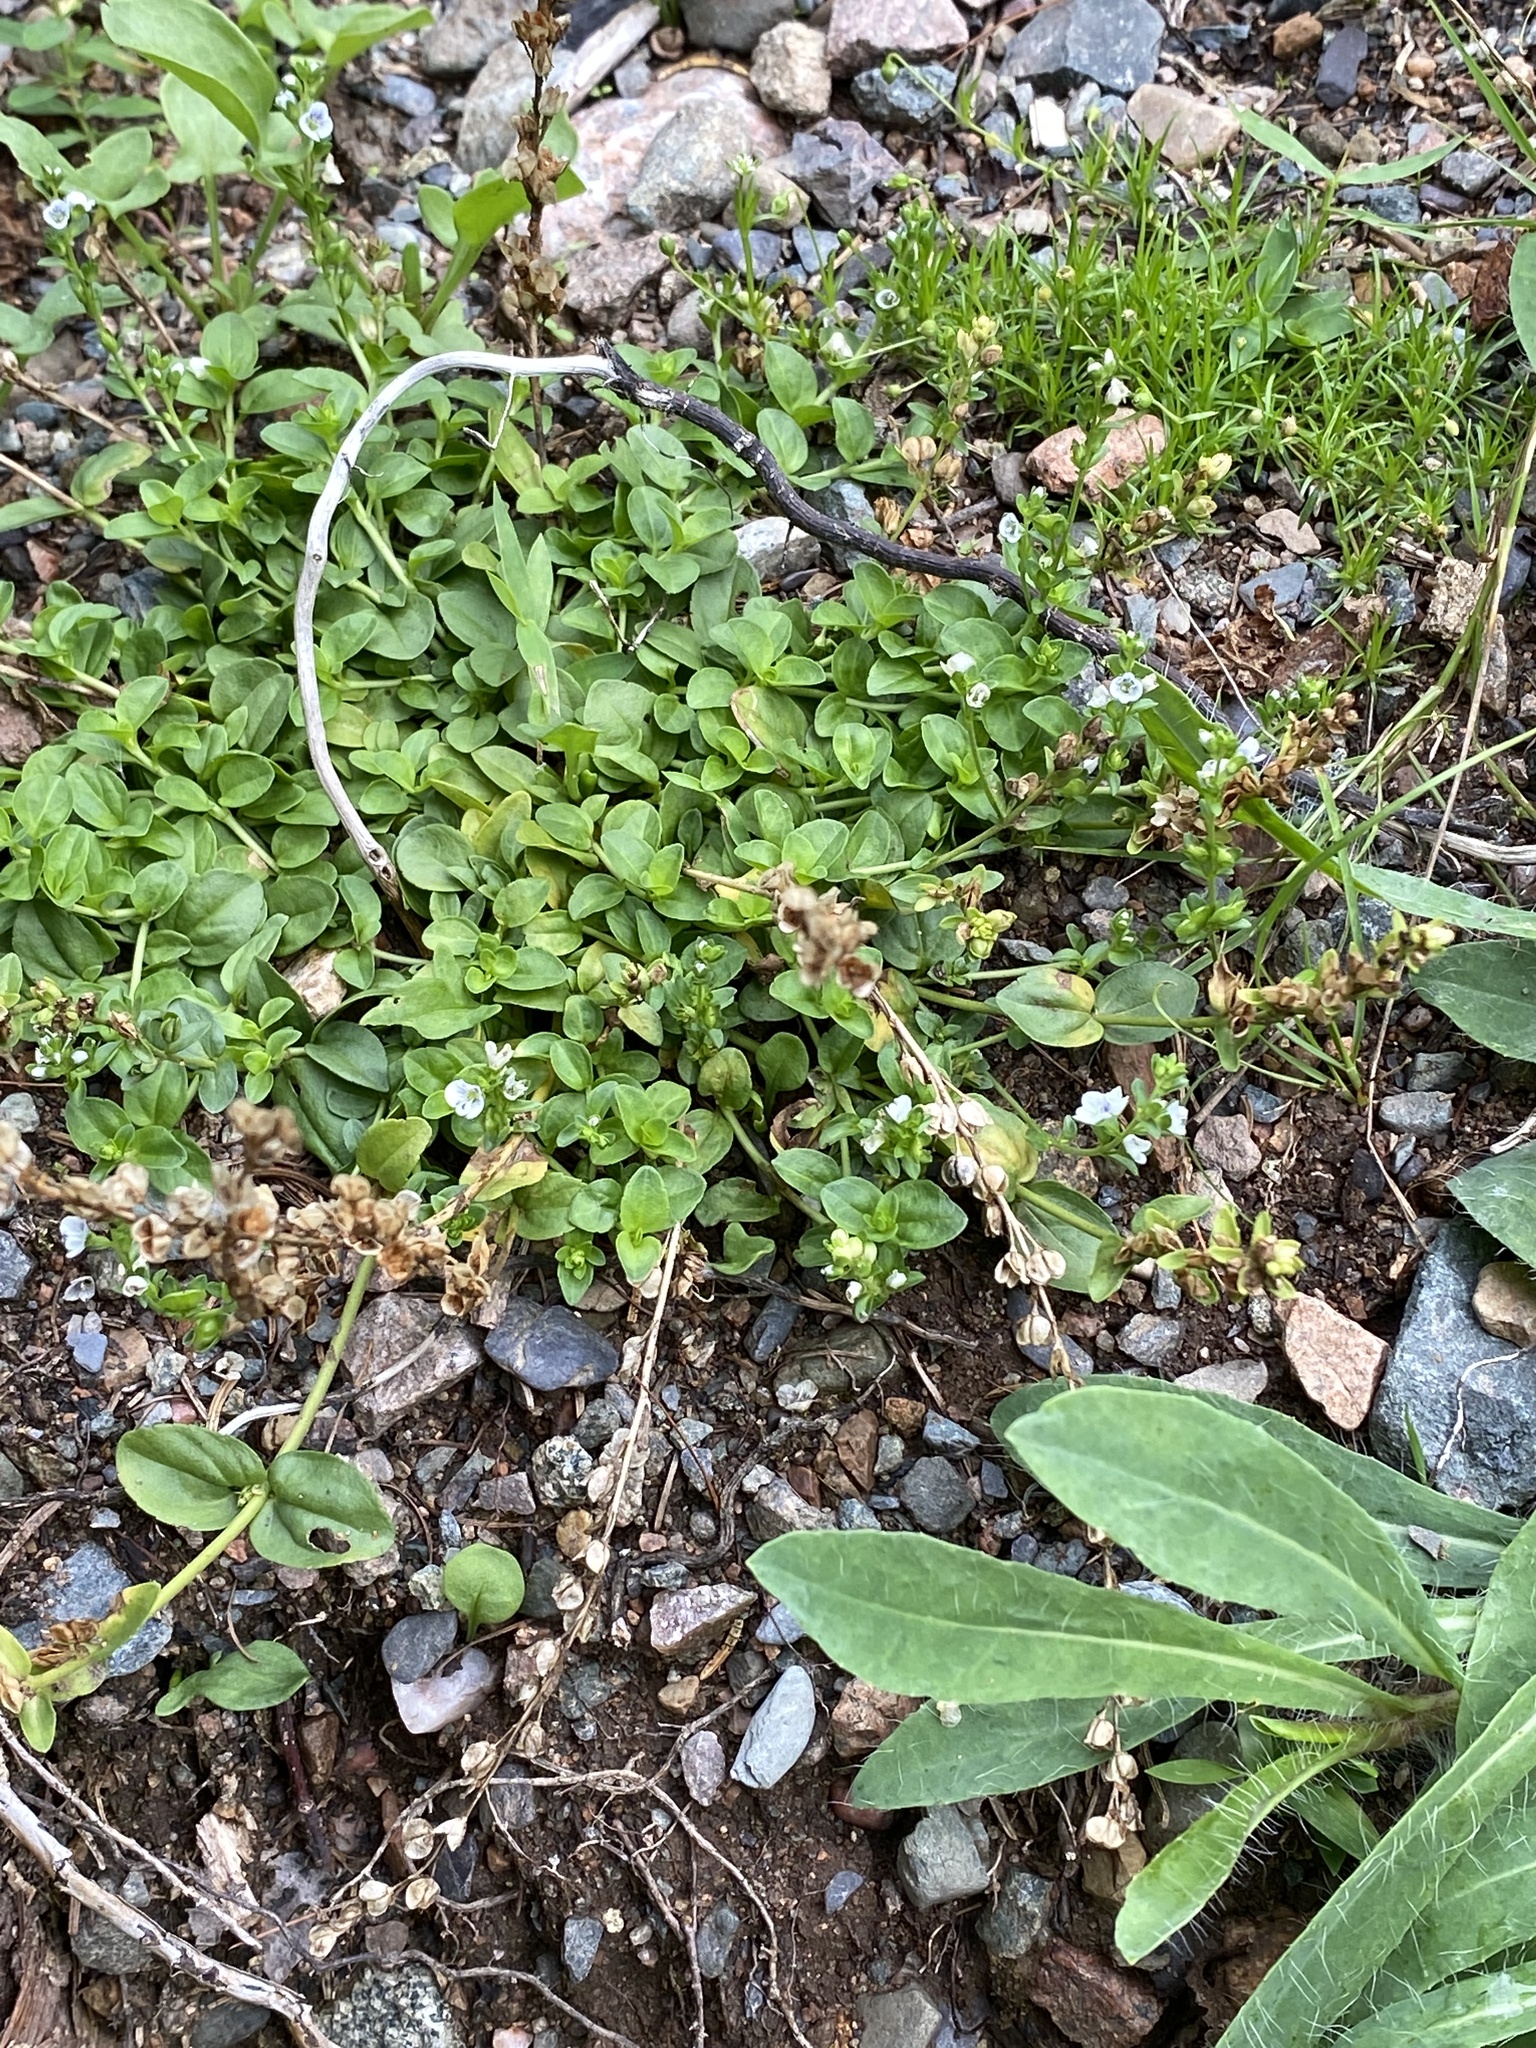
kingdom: Plantae
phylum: Tracheophyta
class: Magnoliopsida
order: Lamiales
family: Plantaginaceae
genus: Veronica
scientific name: Veronica serpyllifolia
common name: Thyme-leaved speedwell
